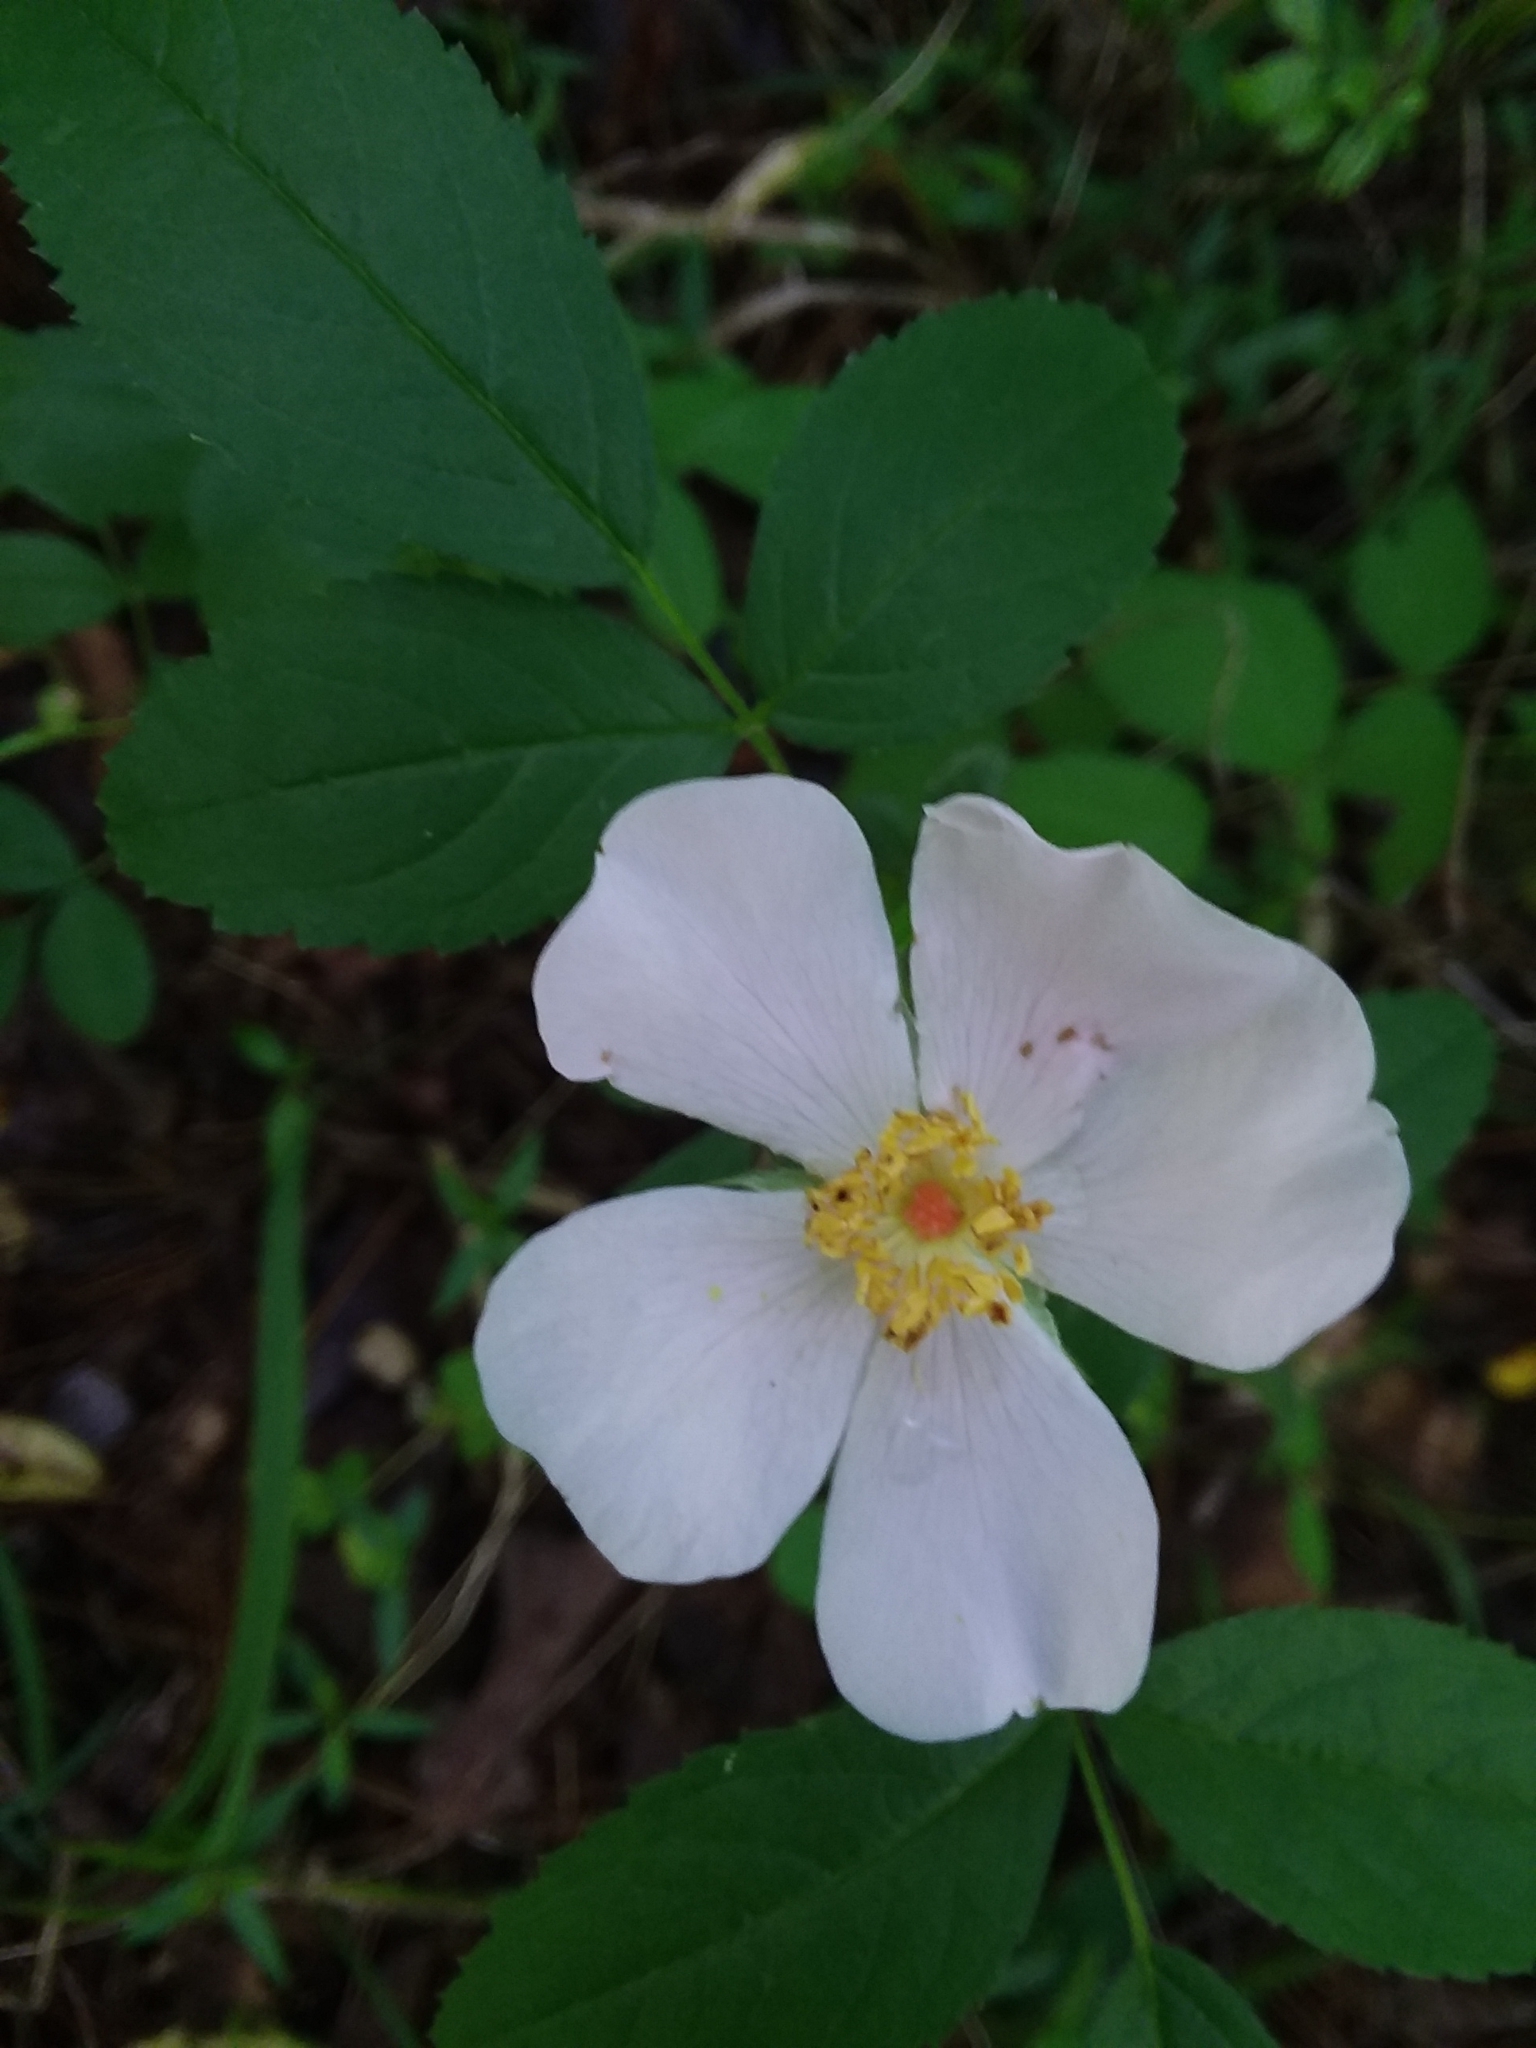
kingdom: Plantae
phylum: Tracheophyta
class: Magnoliopsida
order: Rosales
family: Rosaceae
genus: Rosa
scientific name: Rosa carolina
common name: Pasture rose
